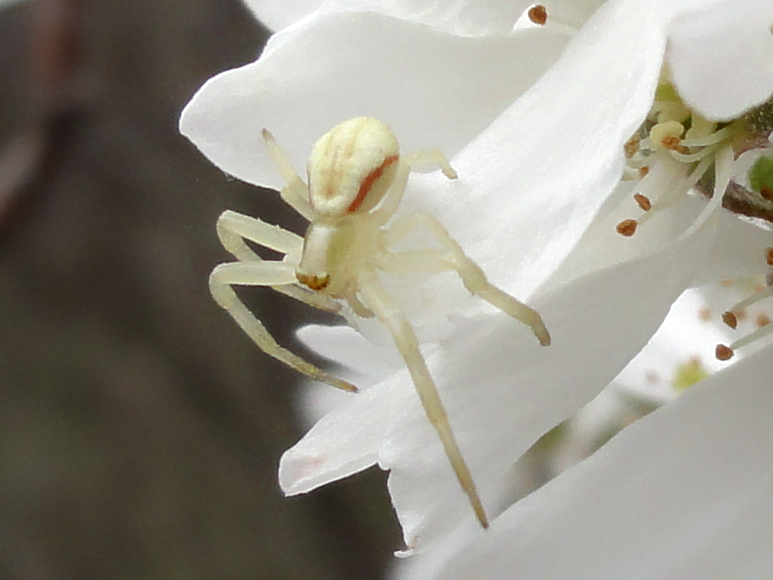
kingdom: Animalia
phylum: Arthropoda
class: Arachnida
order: Araneae
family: Thomisidae
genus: Misumena
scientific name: Misumena vatia
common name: Goldenrod crab spider
